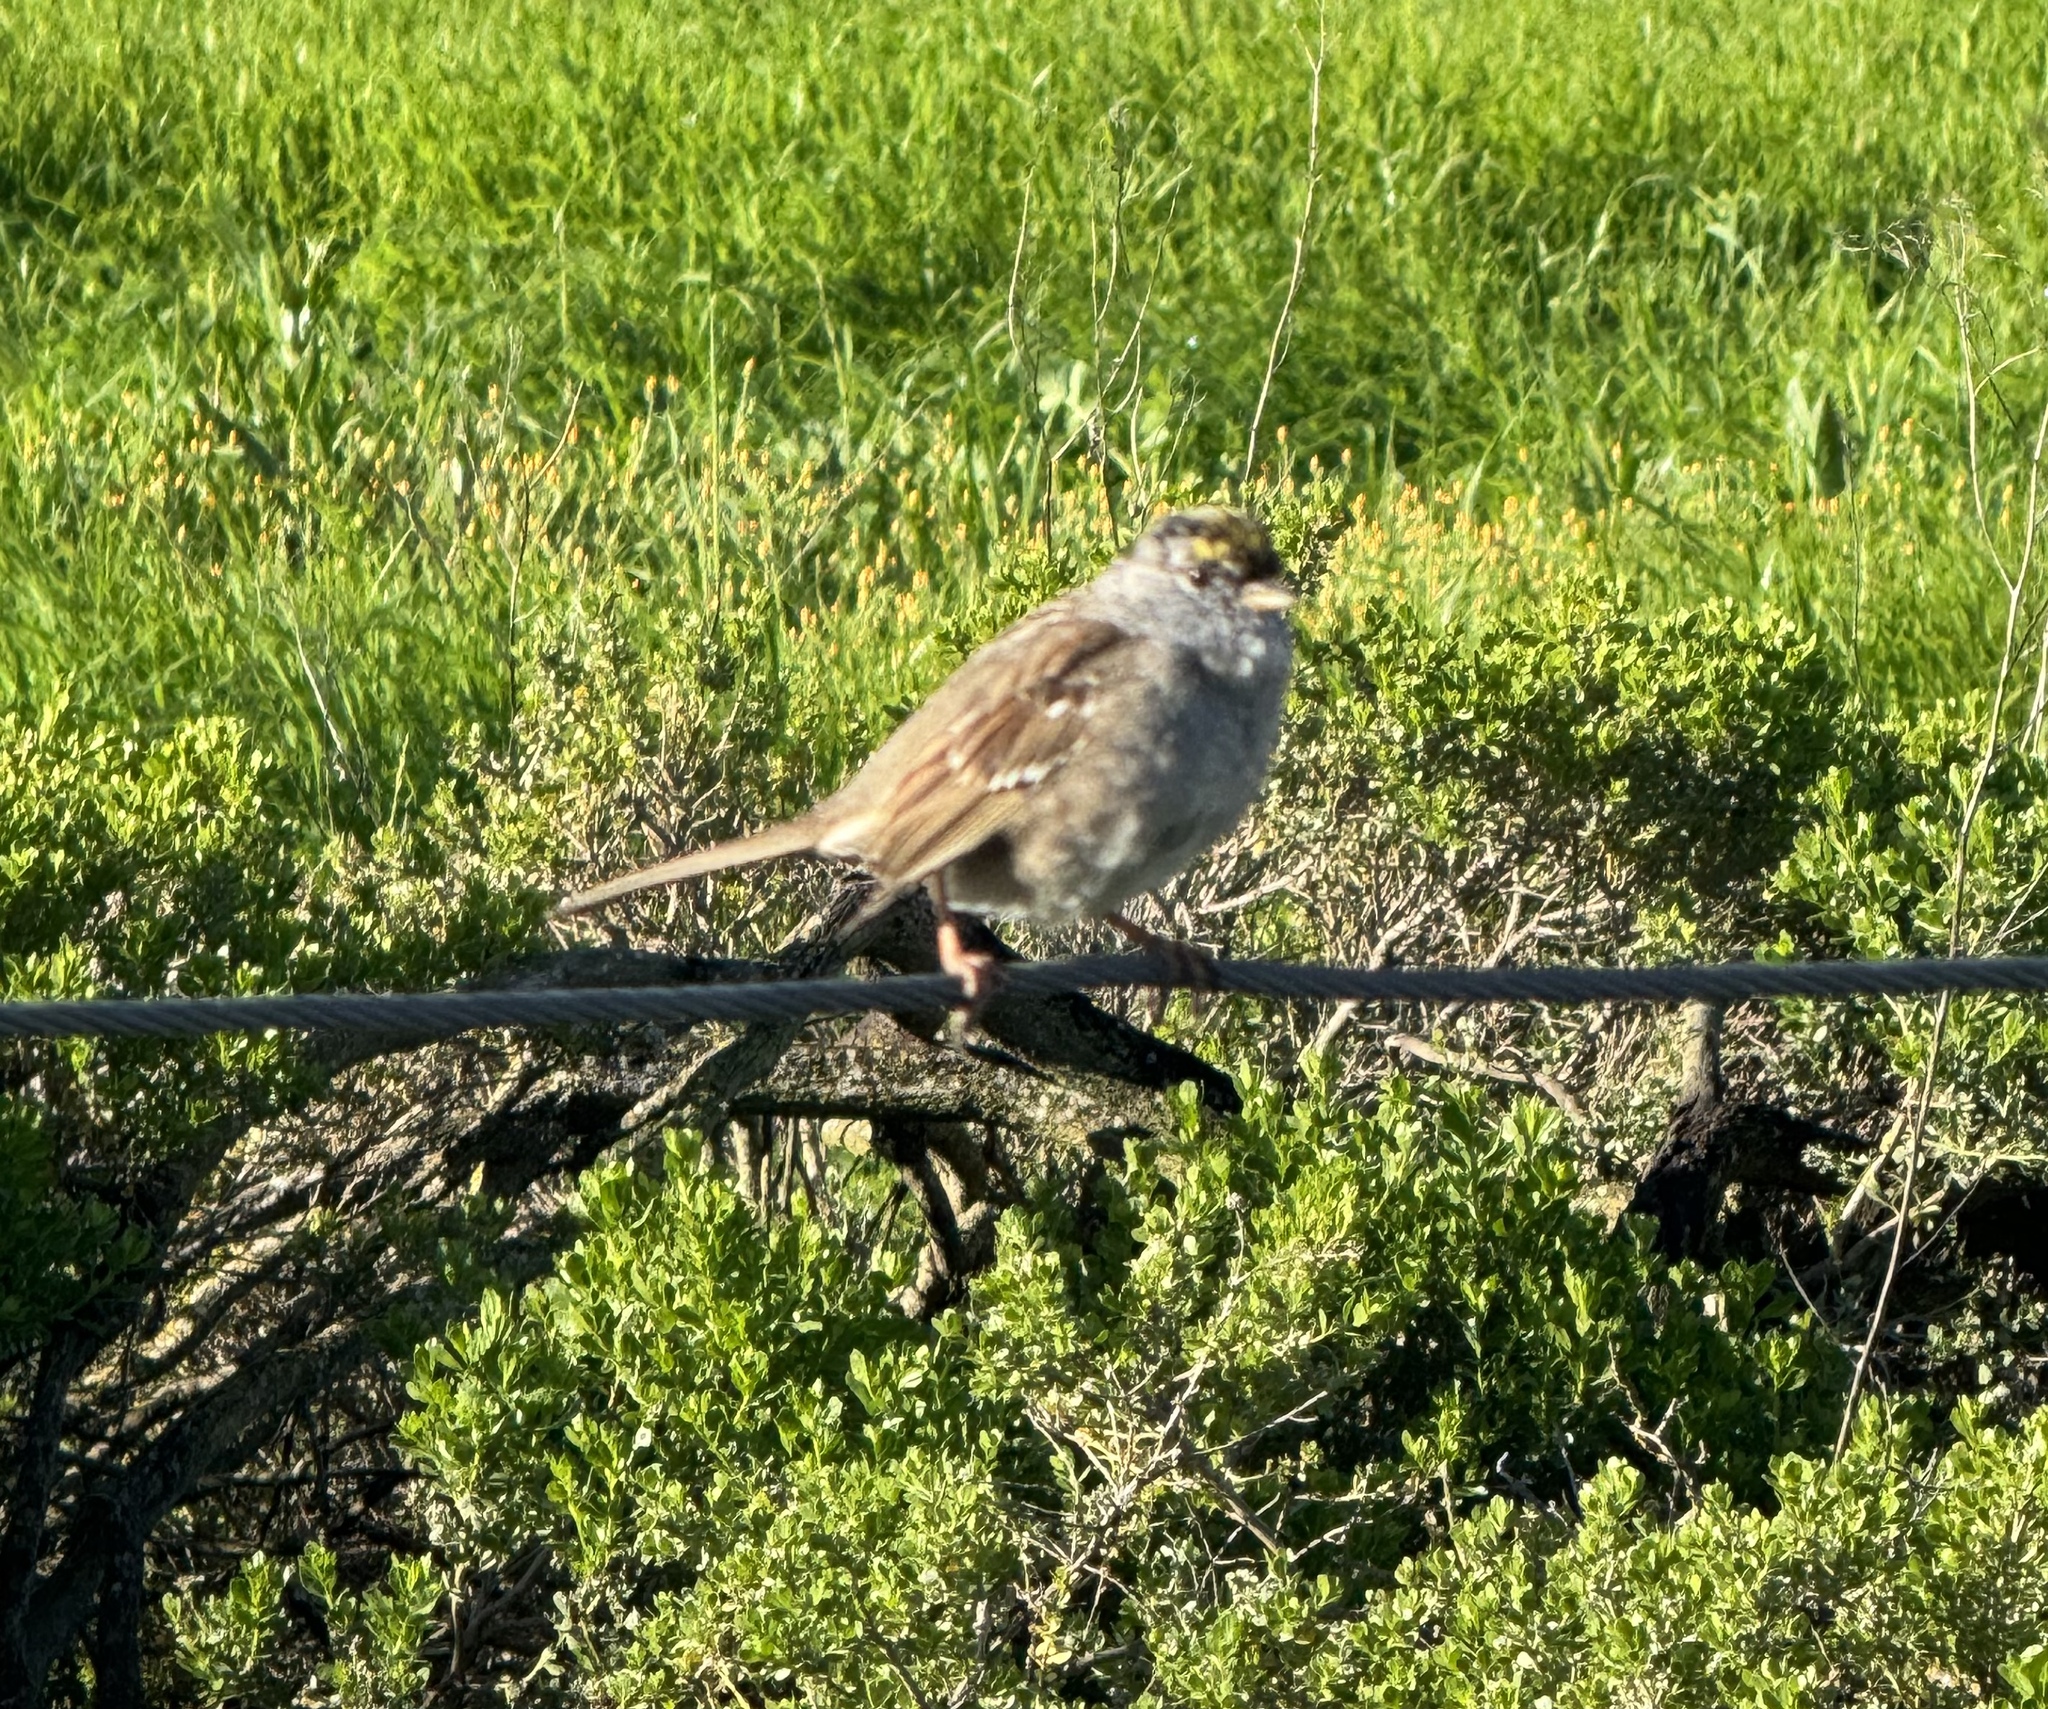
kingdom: Animalia
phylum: Chordata
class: Aves
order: Passeriformes
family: Passerellidae
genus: Zonotrichia
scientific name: Zonotrichia atricapilla
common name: Golden-crowned sparrow
